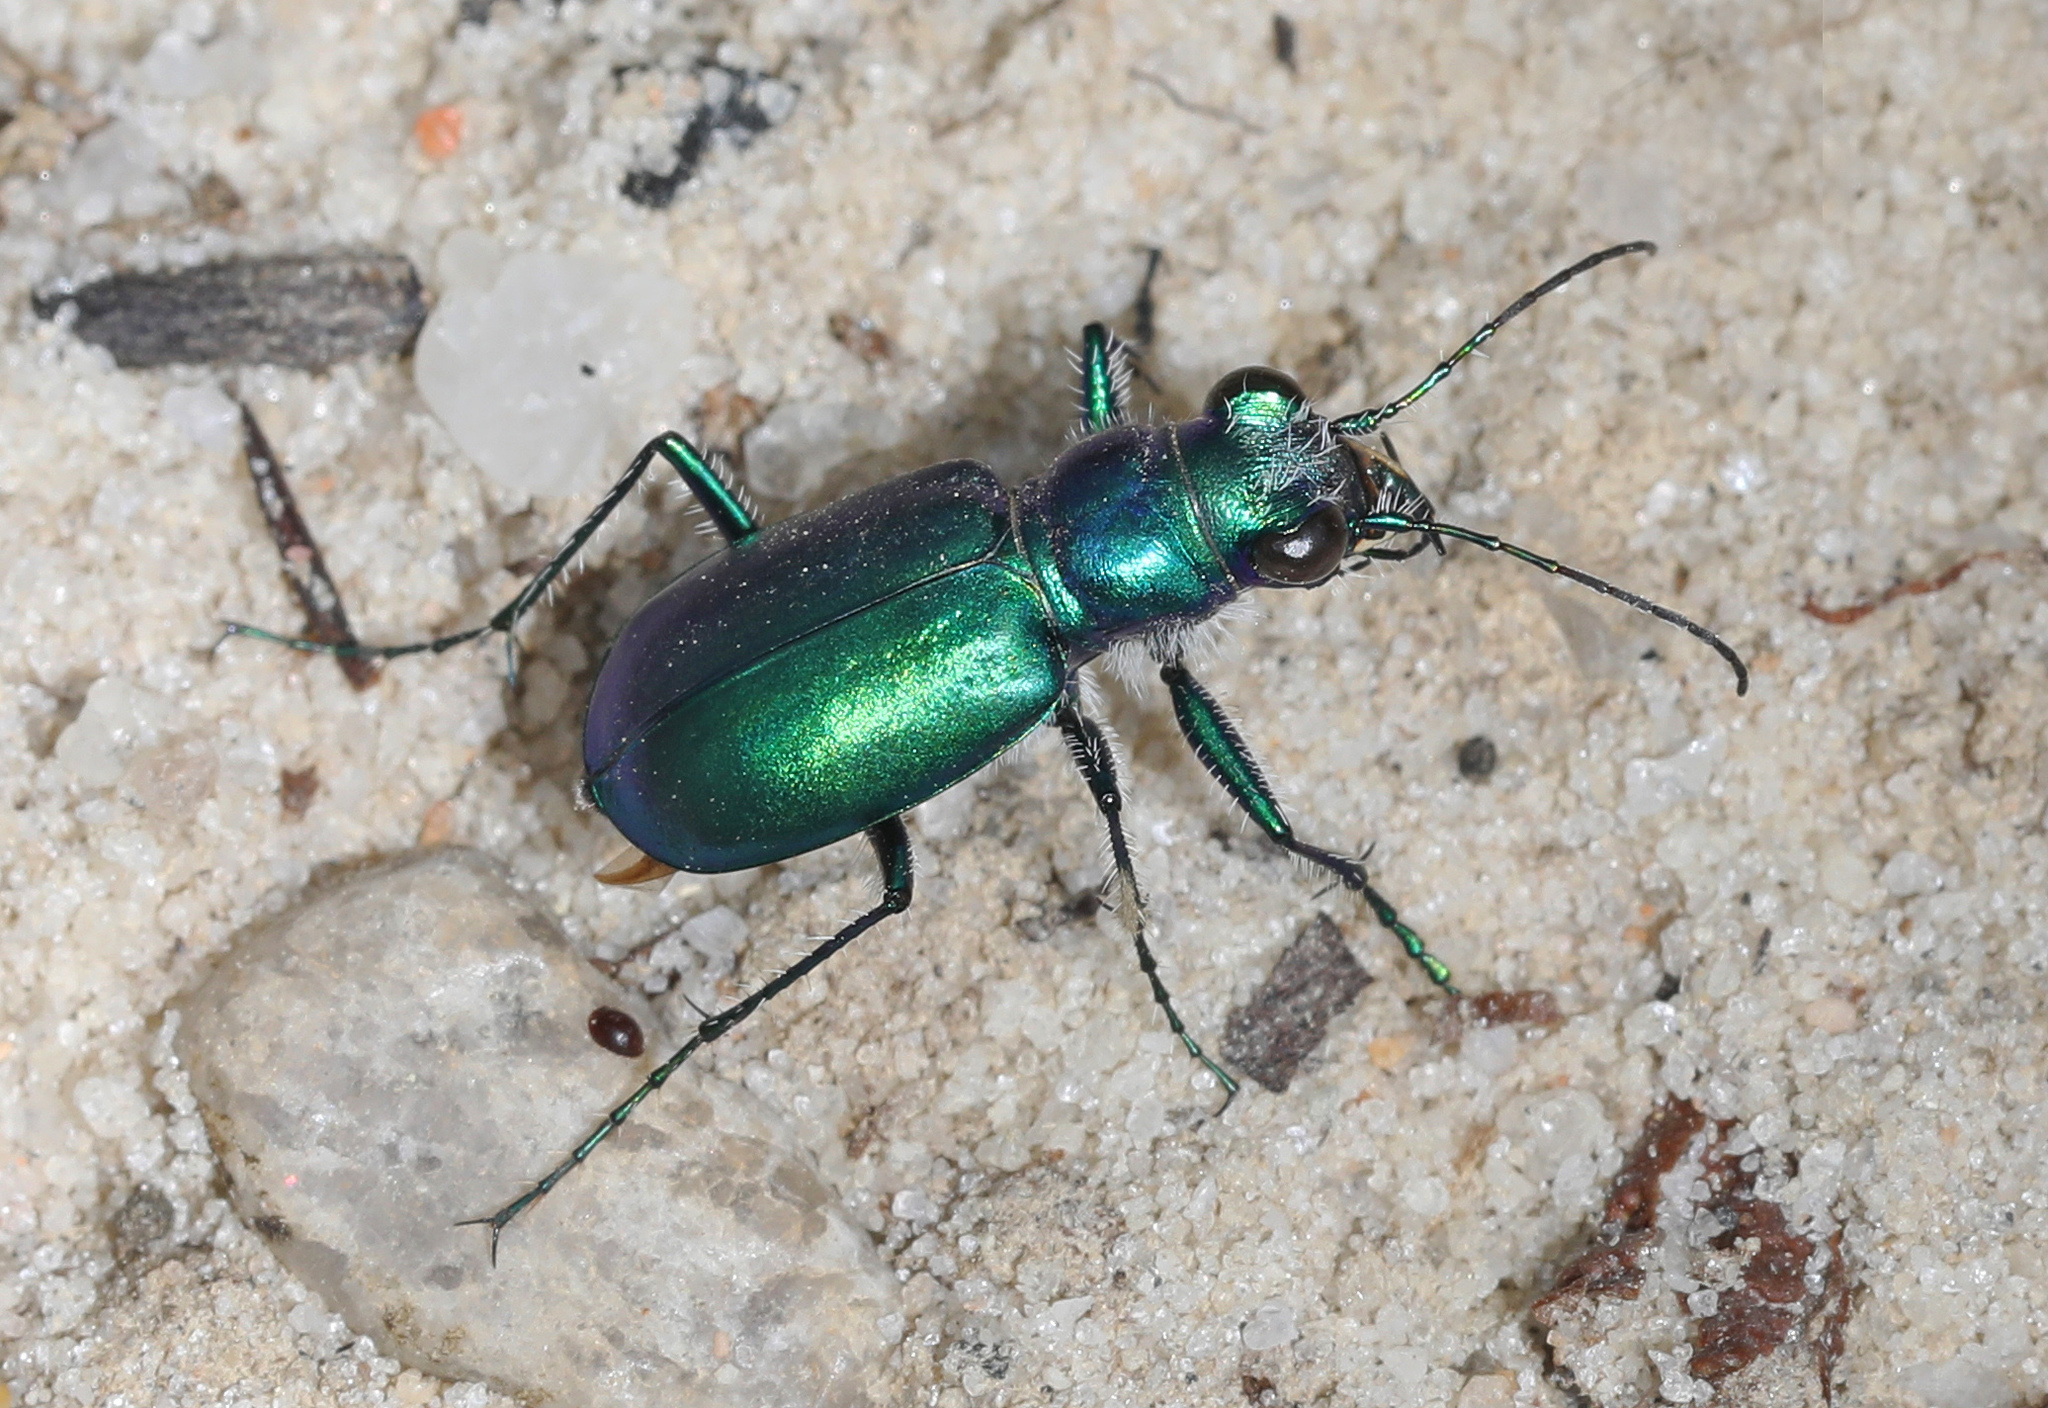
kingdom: Animalia
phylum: Arthropoda
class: Insecta
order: Coleoptera
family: Carabidae
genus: Cicindela
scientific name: Cicindela scutellaris
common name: Festive tiger beetle
